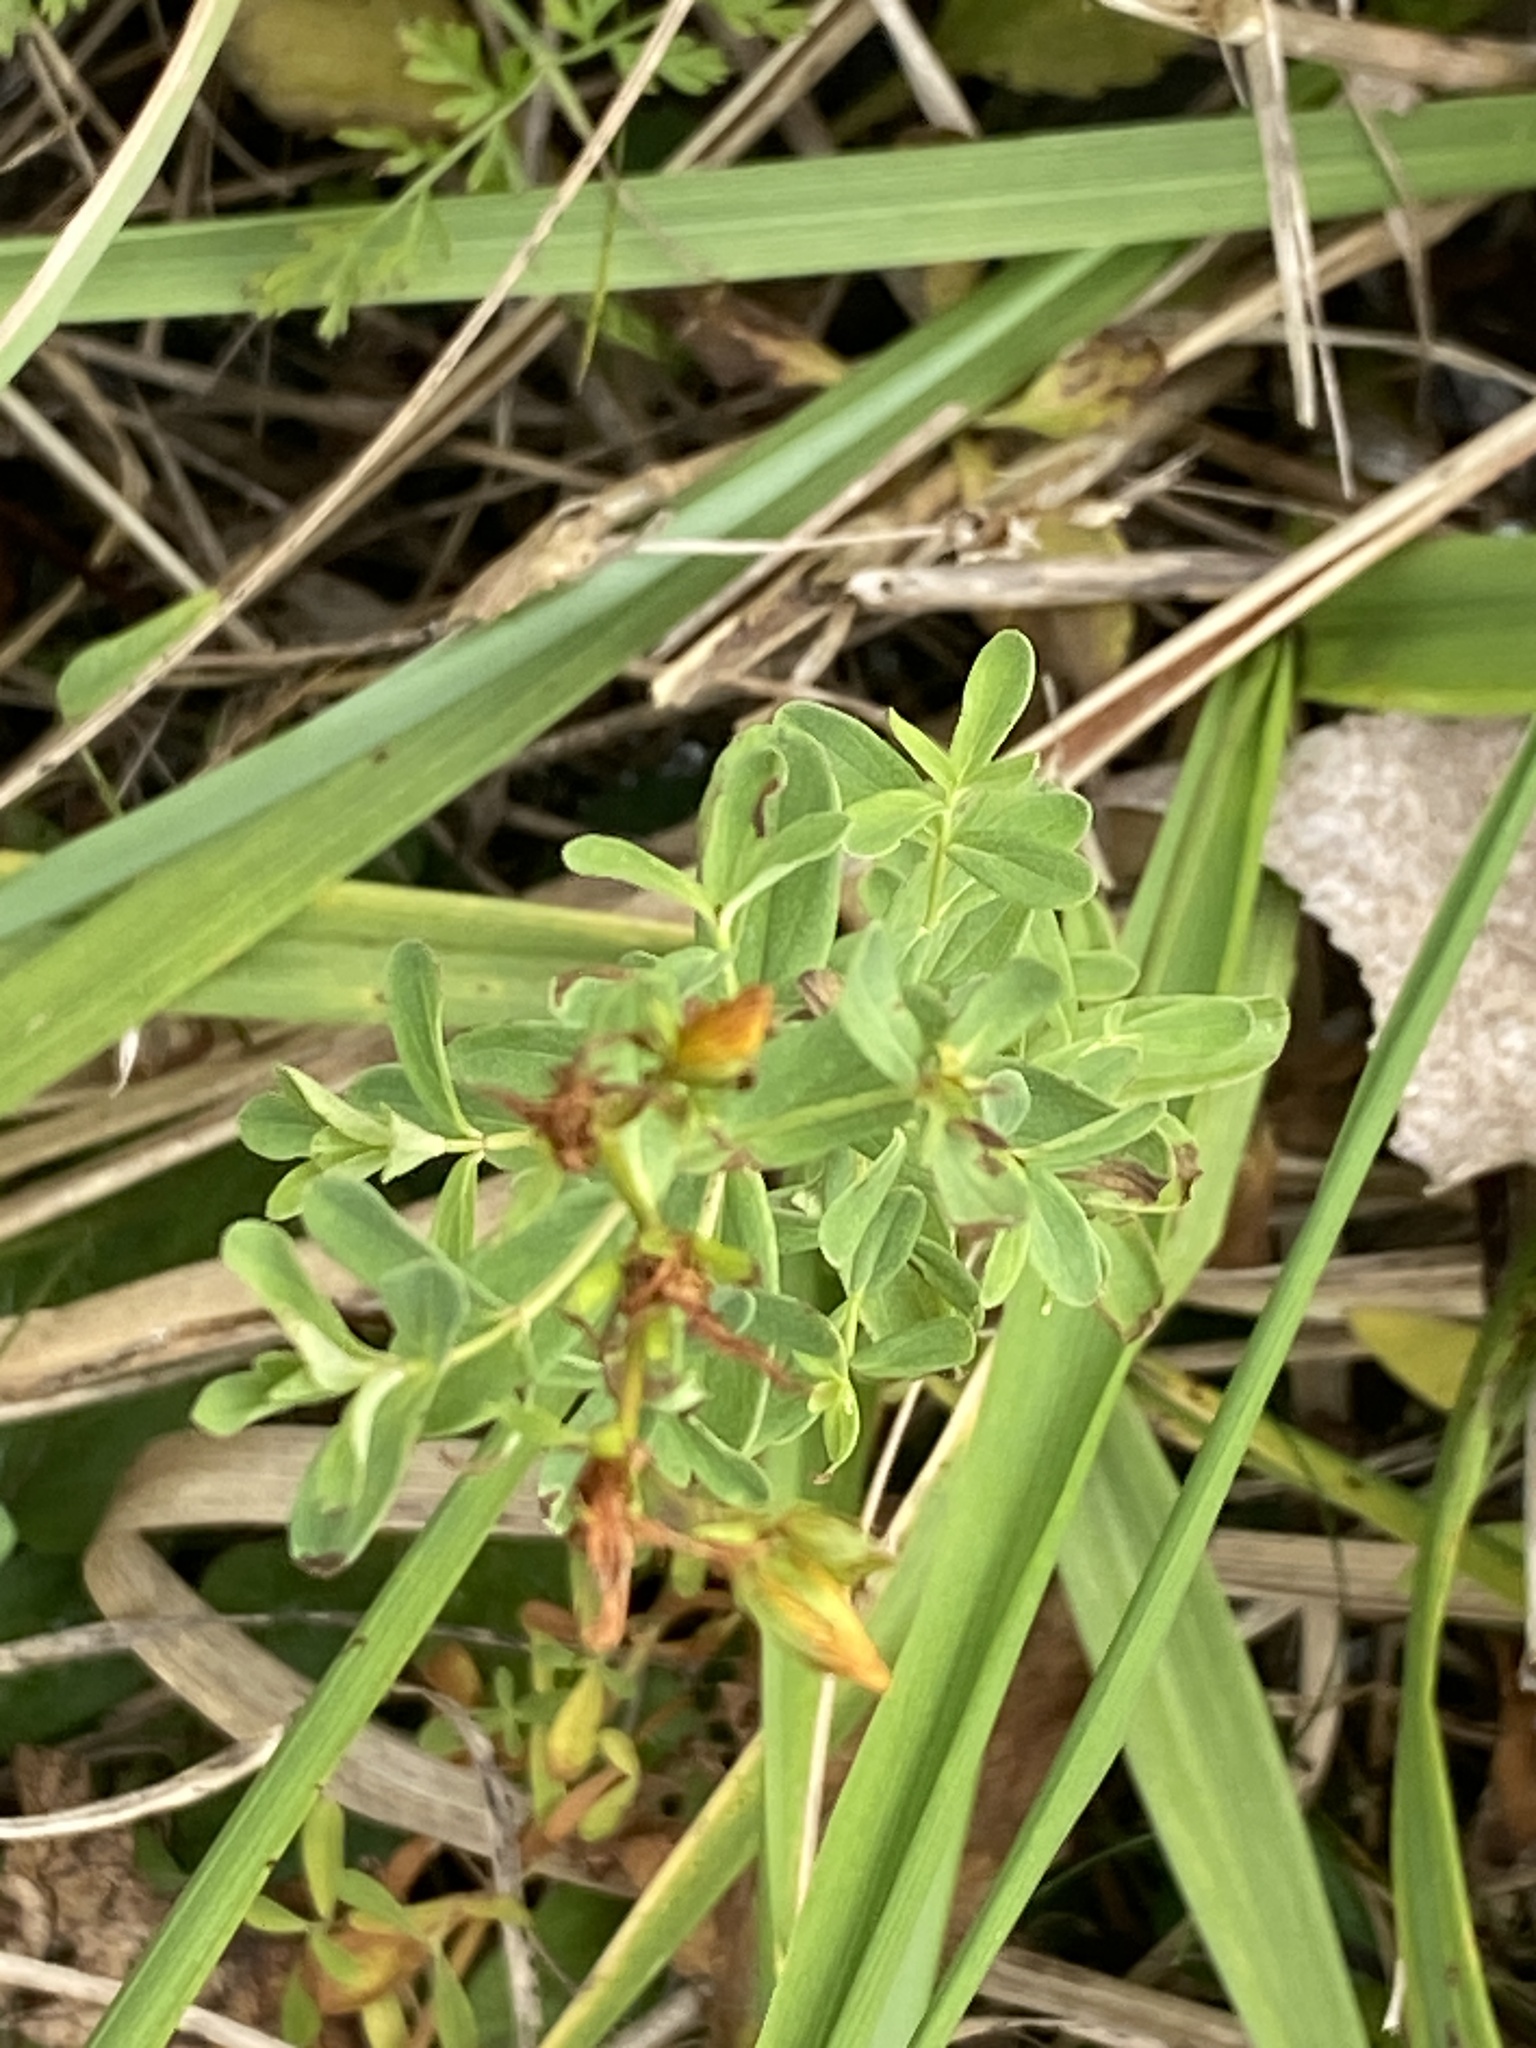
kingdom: Plantae
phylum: Tracheophyta
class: Magnoliopsida
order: Malpighiales
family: Hypericaceae
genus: Hypericum
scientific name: Hypericum perforatum
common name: Common st. johnswort
